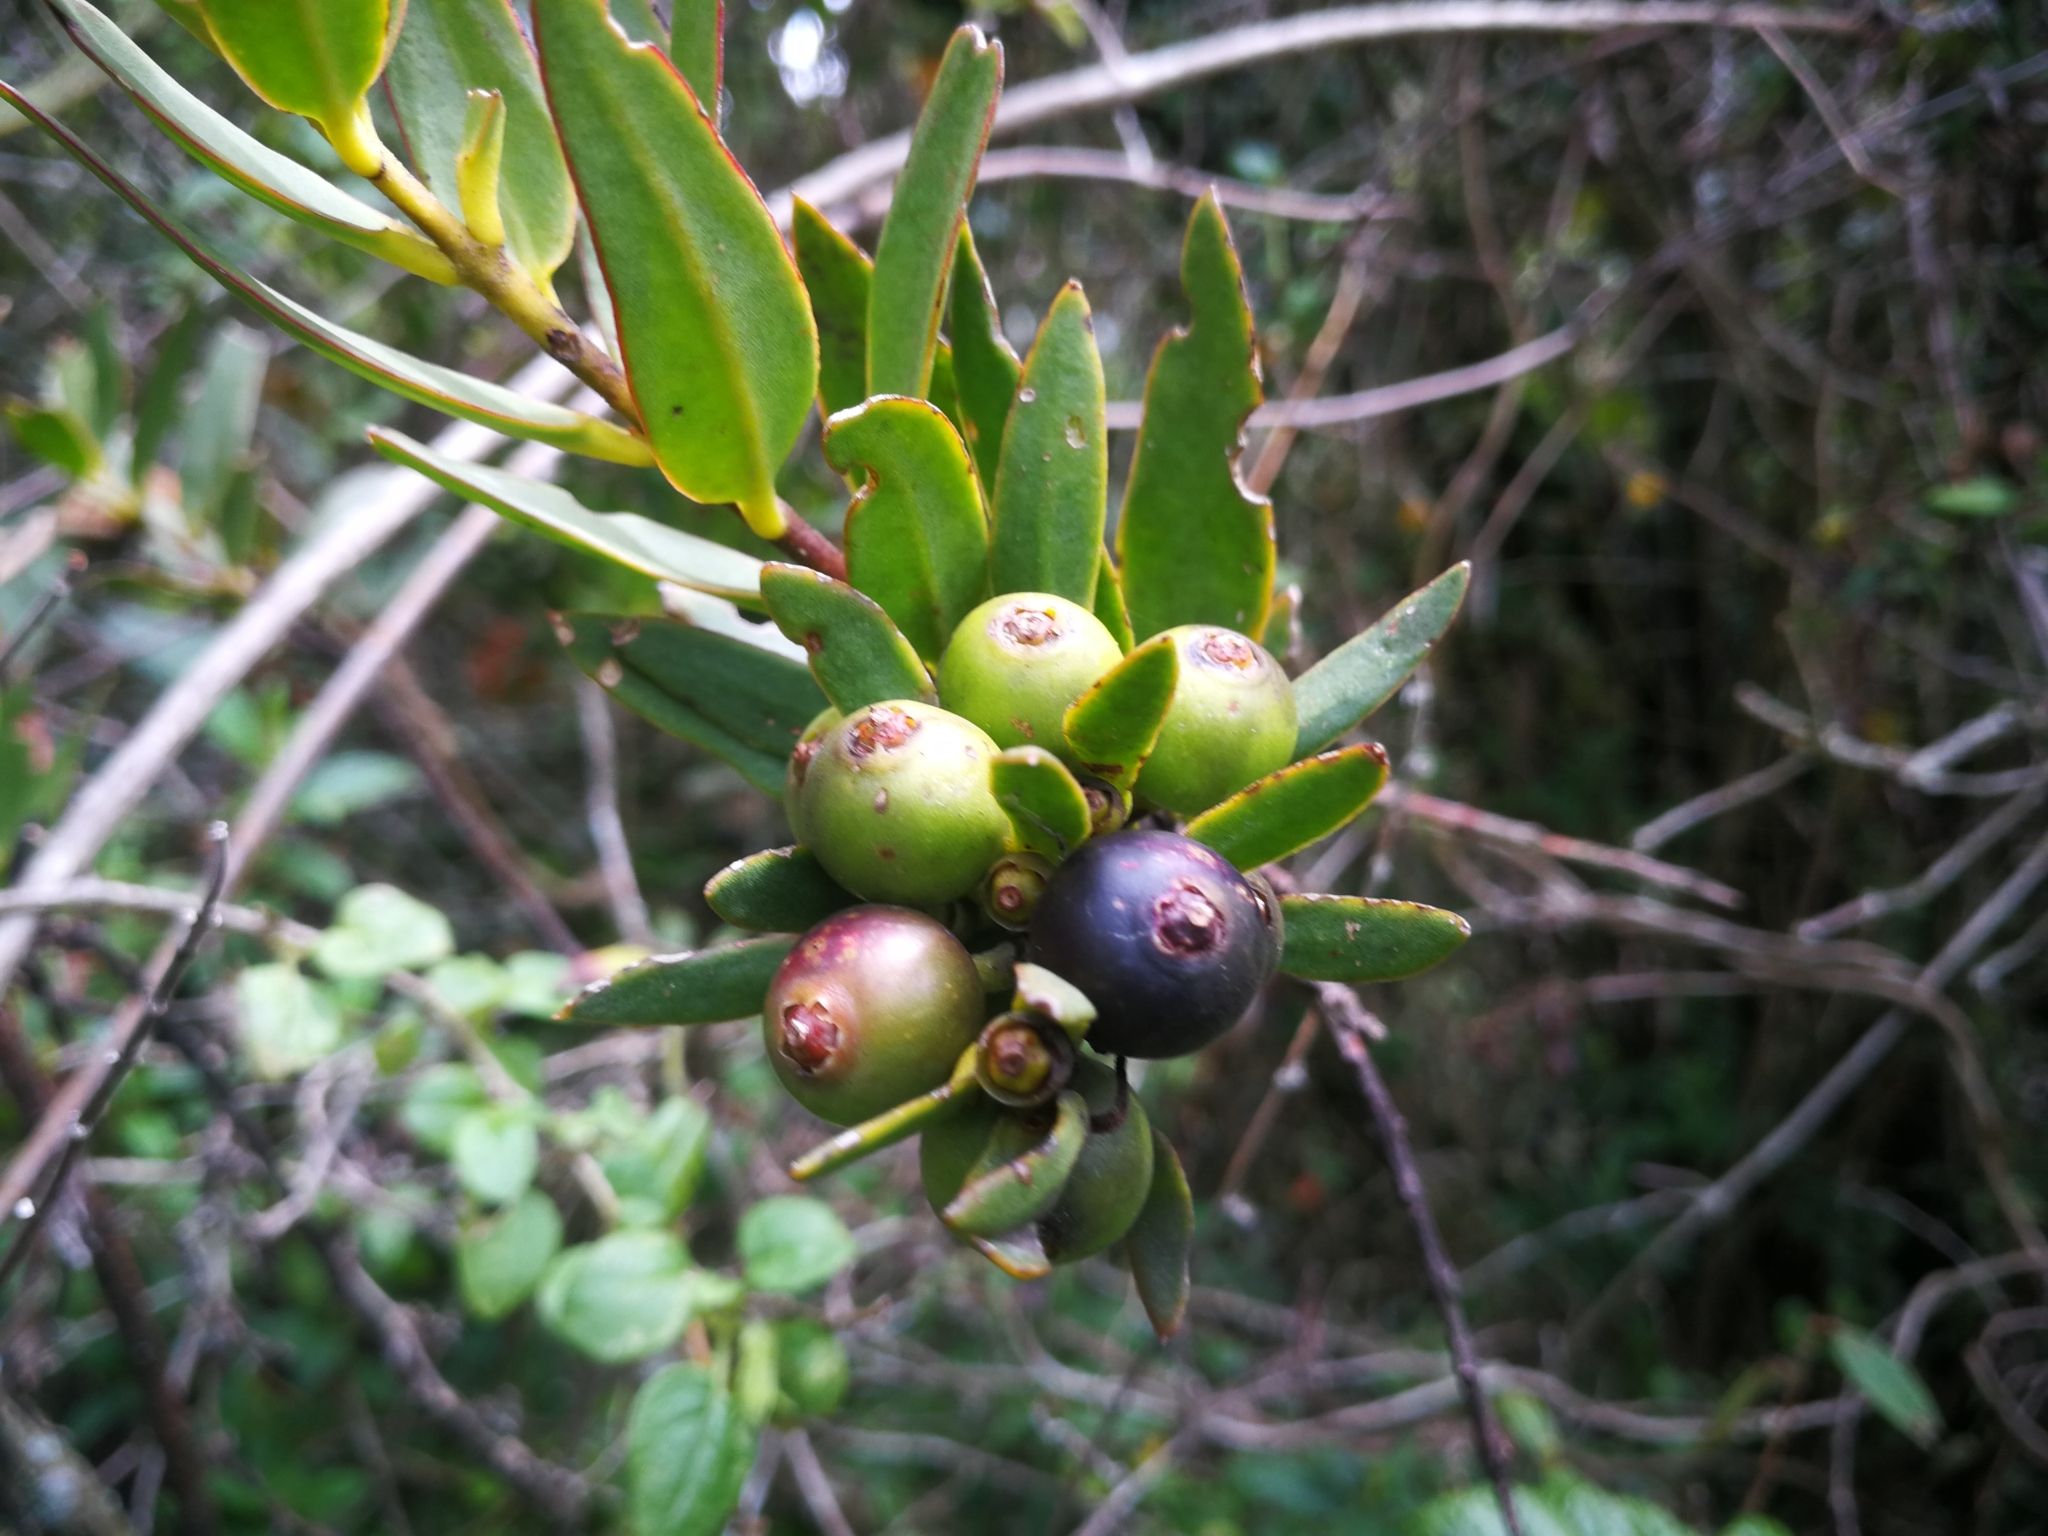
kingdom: Plantae
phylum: Tracheophyta
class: Magnoliopsida
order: Santalales
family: Loranthaceae
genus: Tristerix
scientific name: Tristerix longibracteatus
